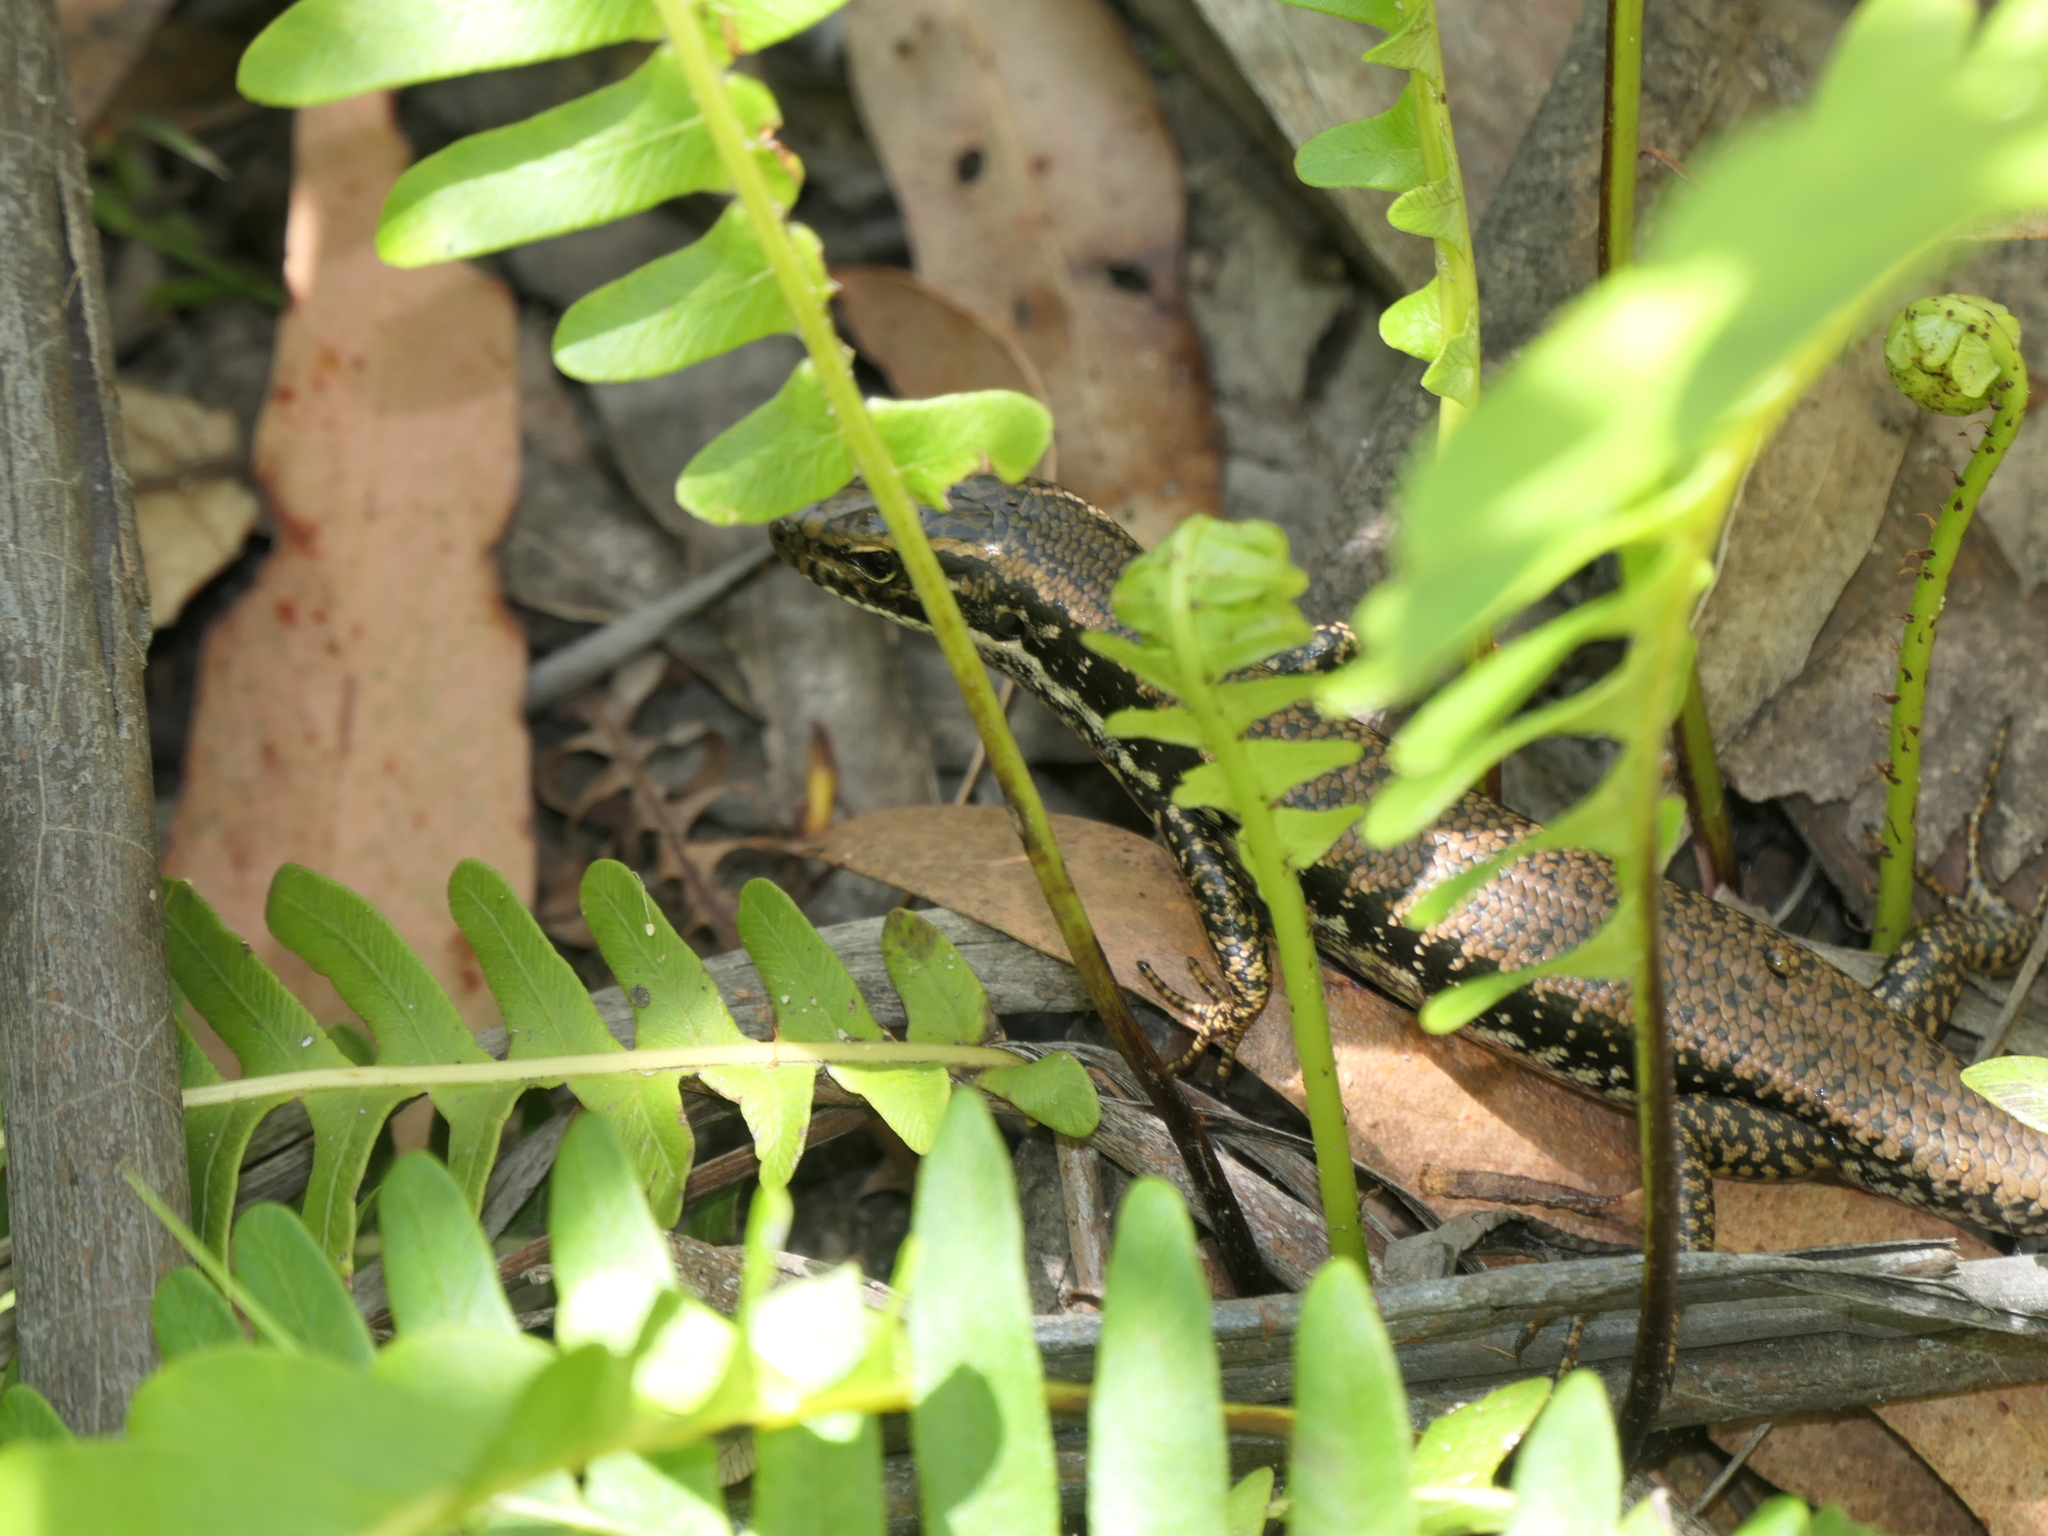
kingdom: Animalia
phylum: Chordata
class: Squamata
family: Scincidae
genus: Eulamprus
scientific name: Eulamprus heatwolei
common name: Warm-temperate water-skink
